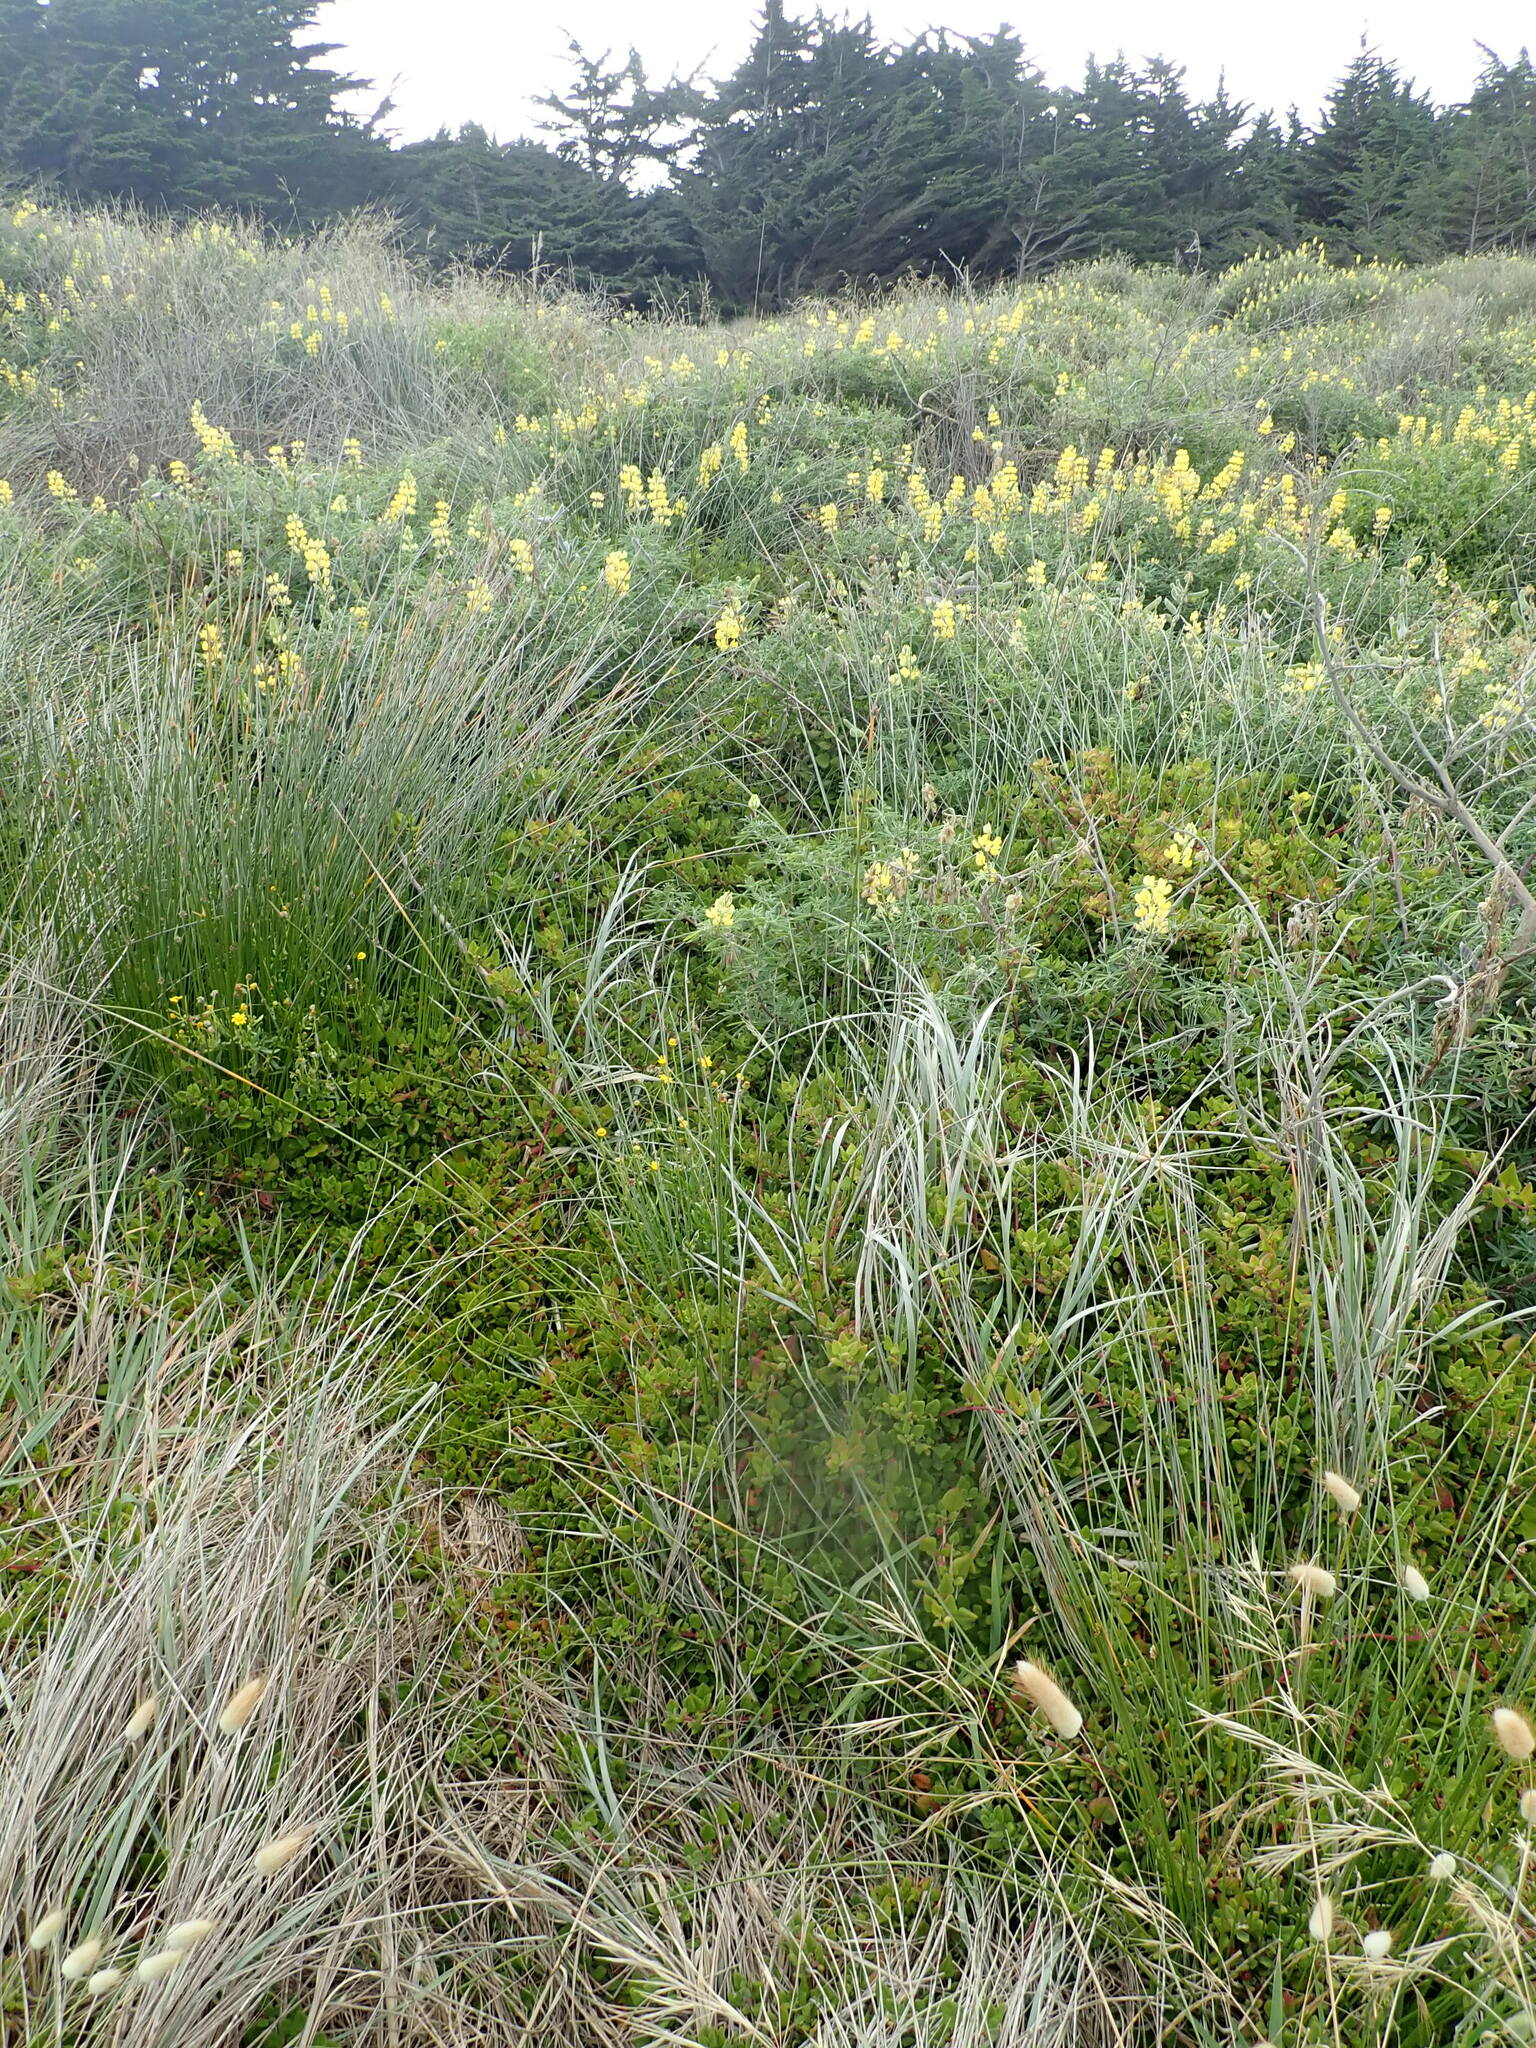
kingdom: Plantae
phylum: Tracheophyta
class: Magnoliopsida
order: Caryophyllales
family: Aizoaceae
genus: Tetragonia
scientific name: Tetragonia implexicoma
